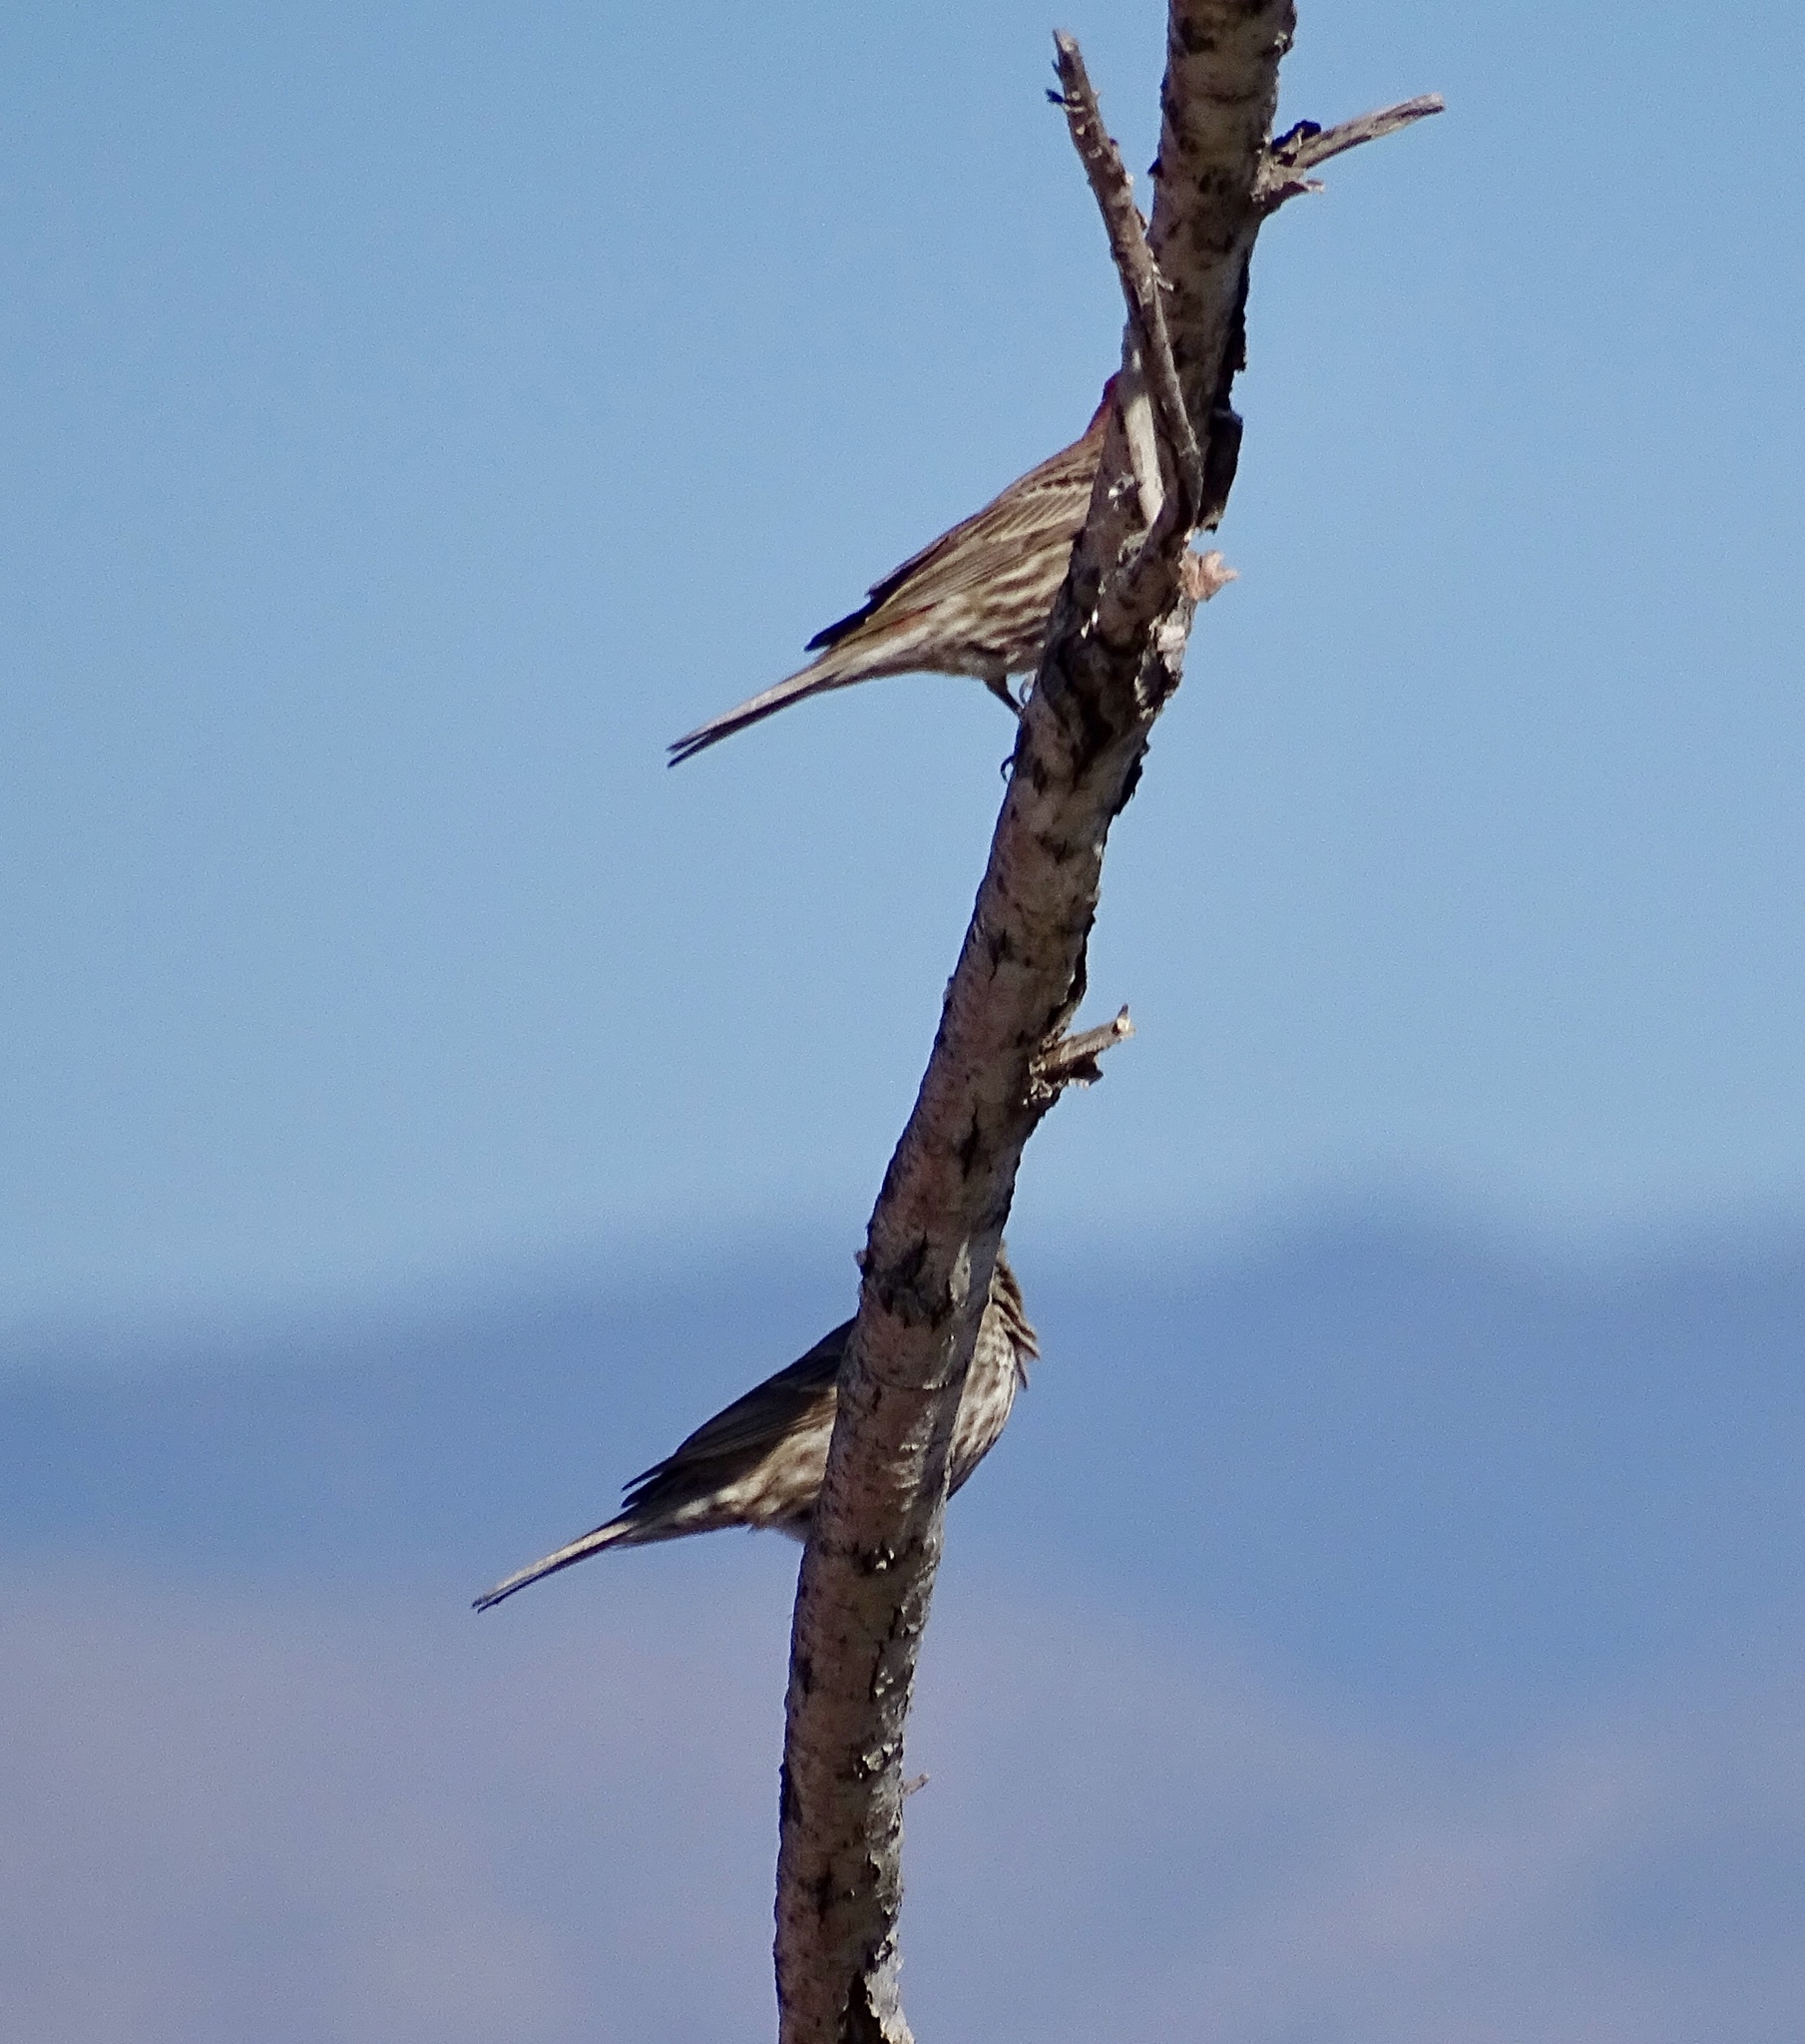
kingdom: Animalia
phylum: Chordata
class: Aves
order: Passeriformes
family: Fringillidae
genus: Haemorhous
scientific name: Haemorhous mexicanus
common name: House finch
